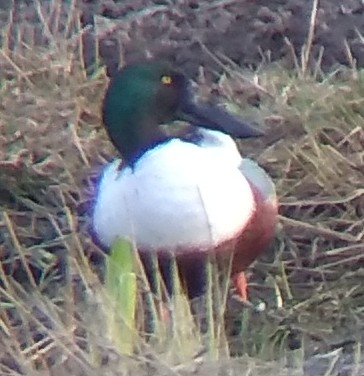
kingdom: Animalia
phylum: Chordata
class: Aves
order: Anseriformes
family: Anatidae
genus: Spatula
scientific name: Spatula clypeata
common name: Northern shoveler
